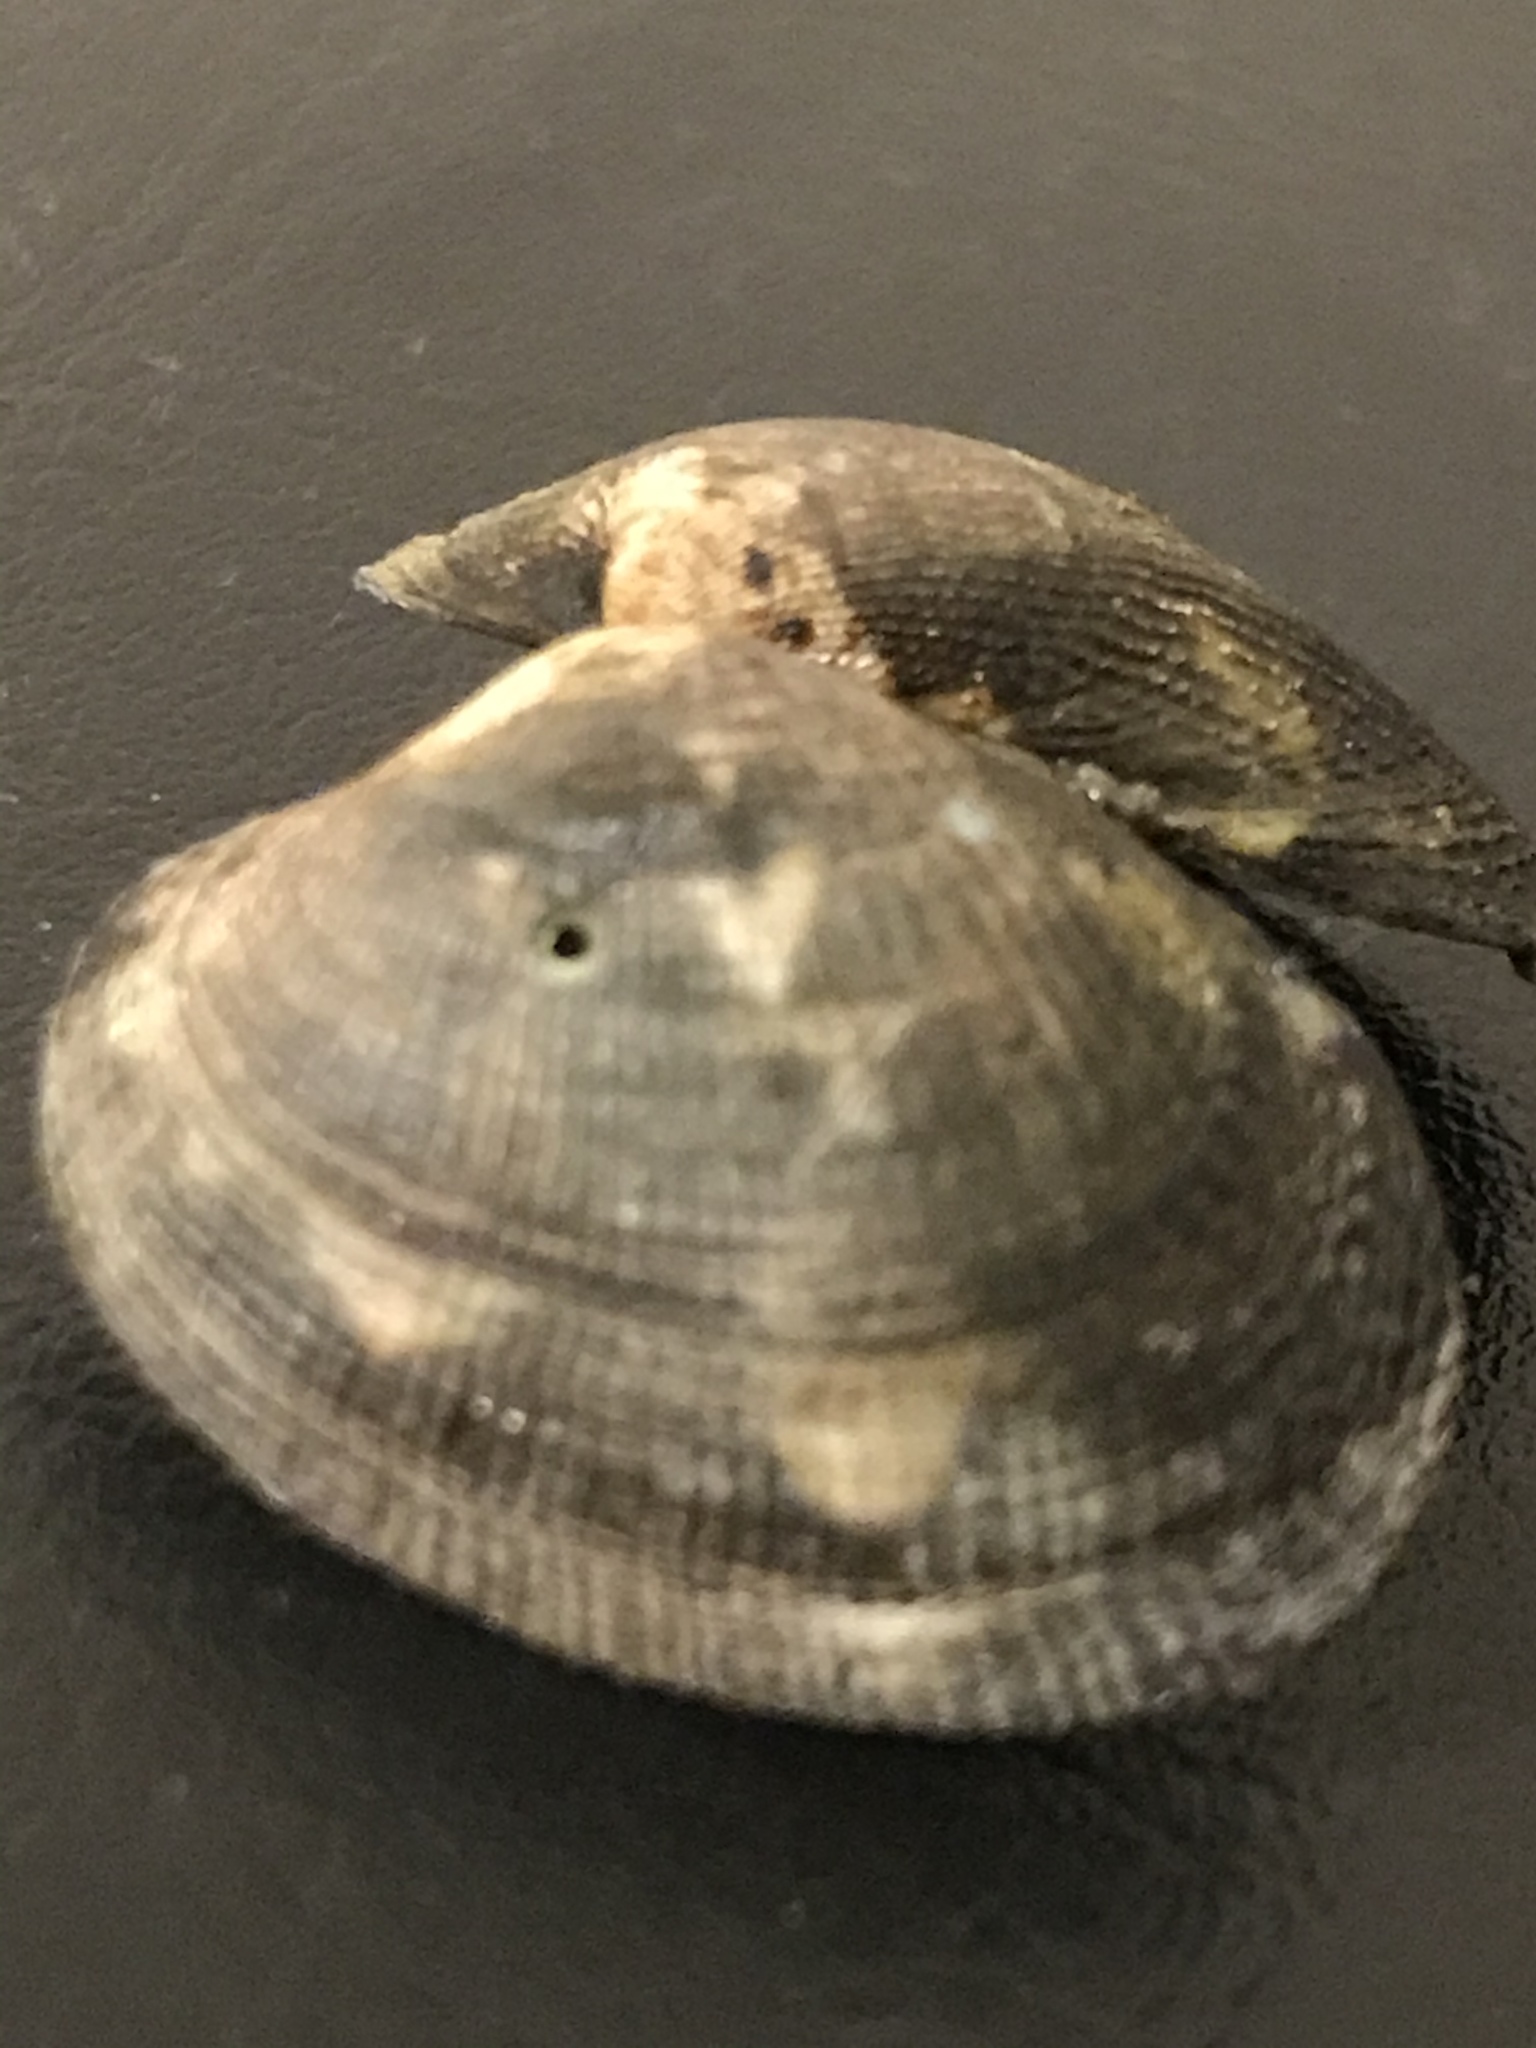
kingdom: Animalia
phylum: Mollusca
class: Bivalvia
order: Venerida
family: Veneridae
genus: Ruditapes
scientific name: Ruditapes philippinarum
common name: Manila clam
